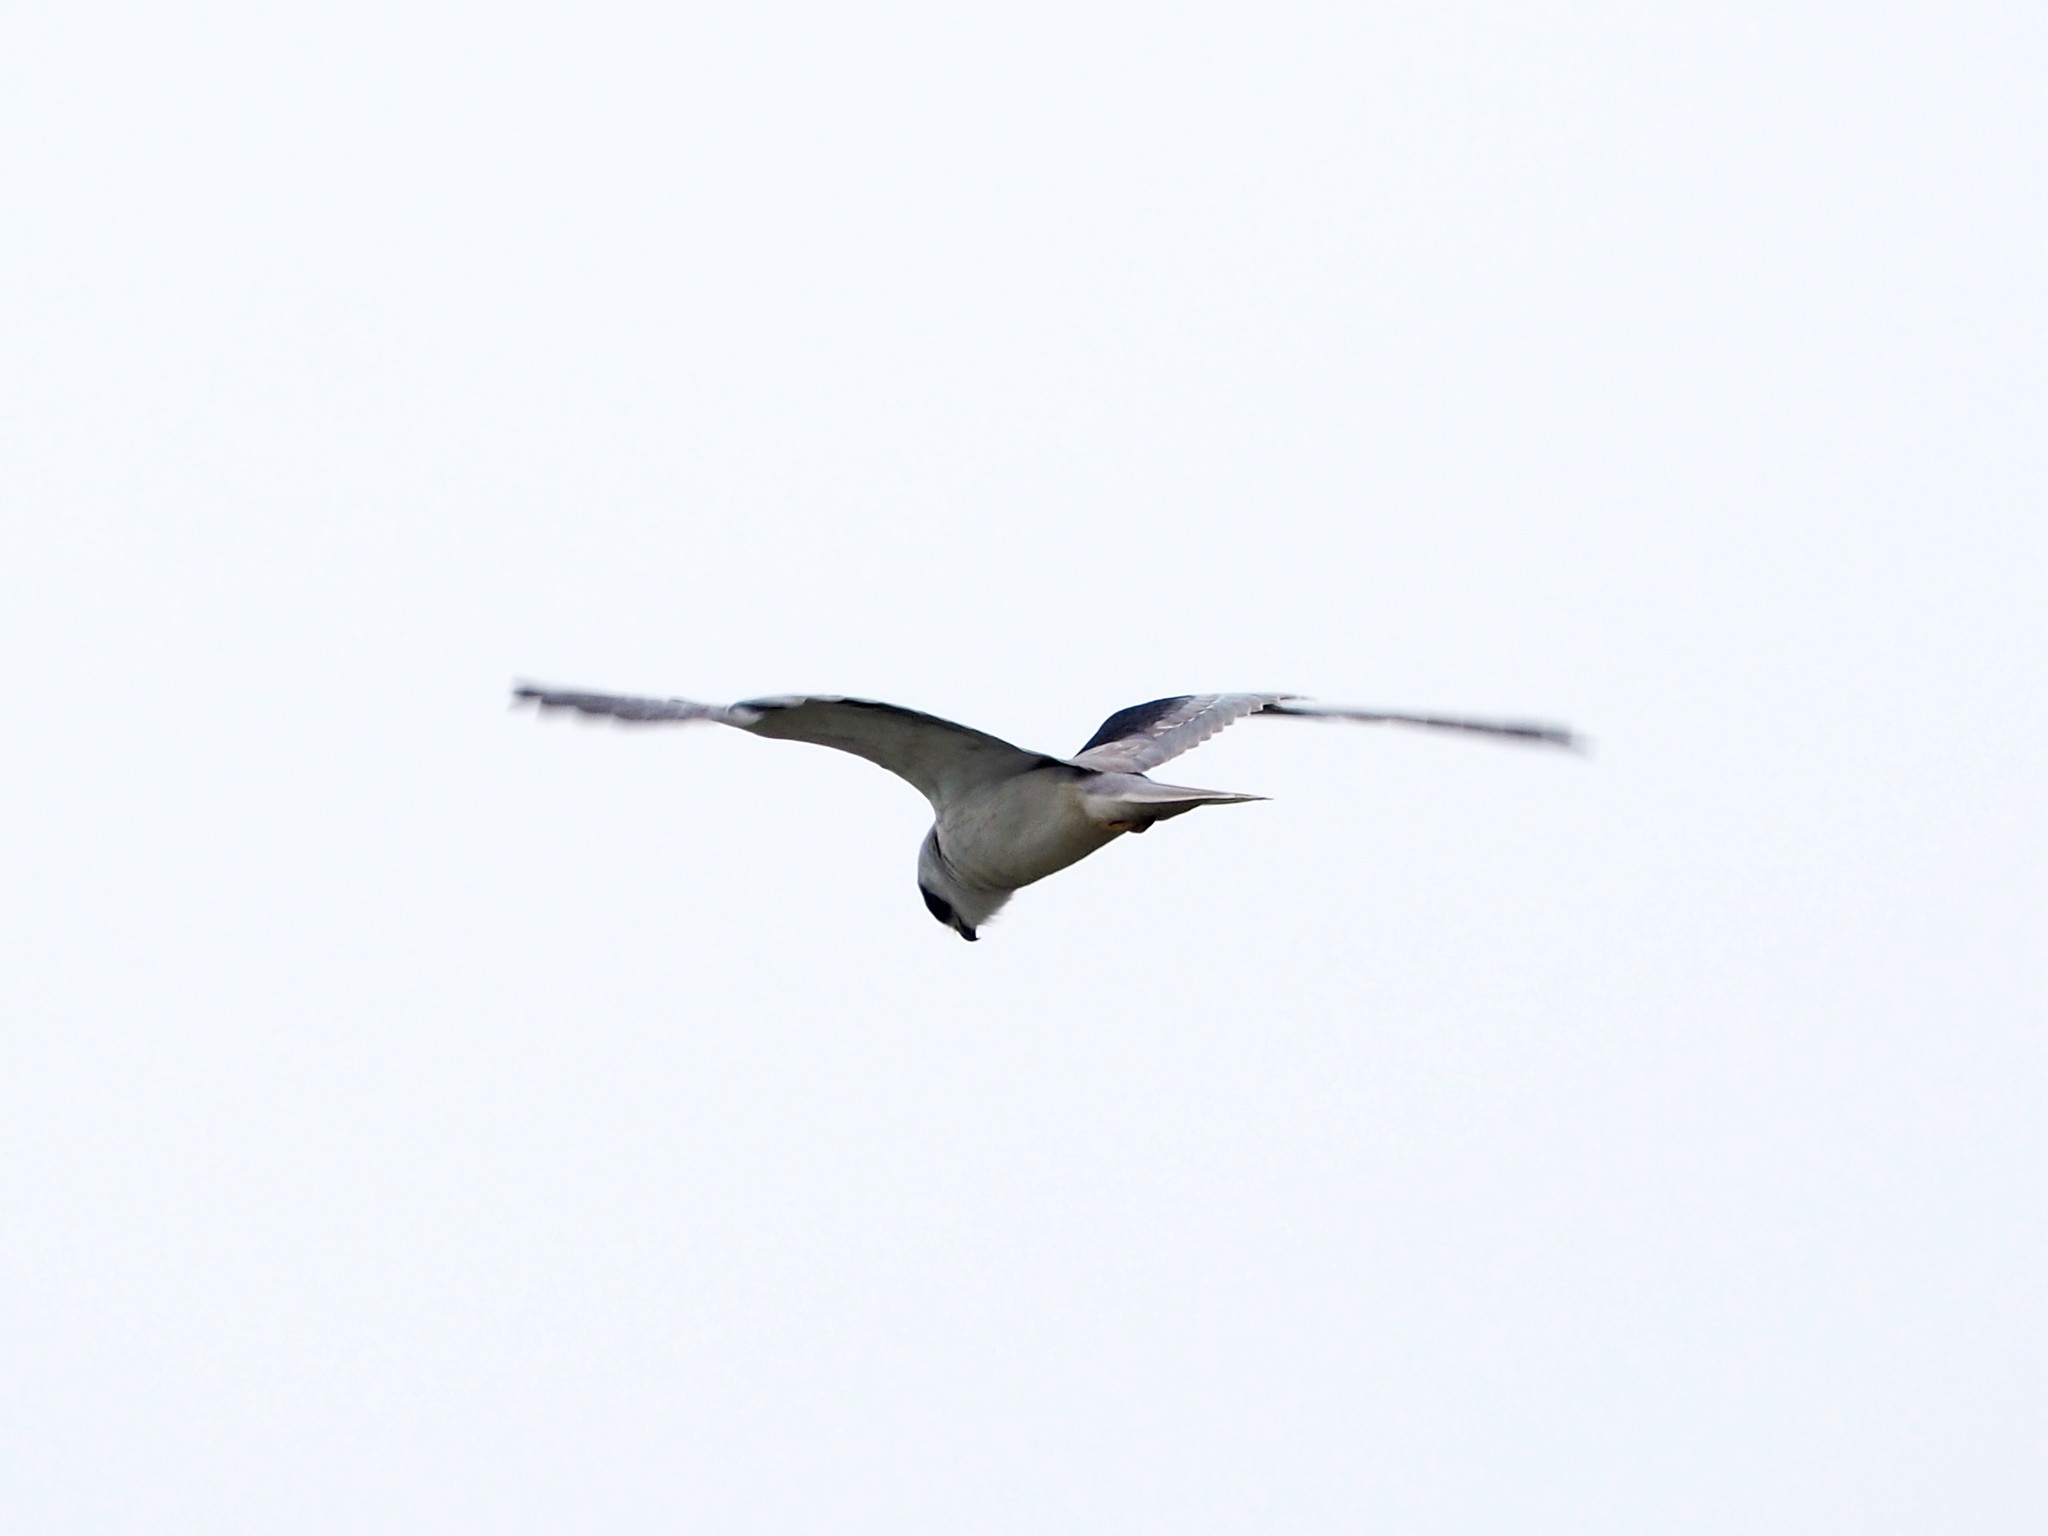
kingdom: Animalia
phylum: Chordata
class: Aves
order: Accipitriformes
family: Accipitridae
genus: Elanus
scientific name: Elanus caeruleus
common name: Black-winged kite
